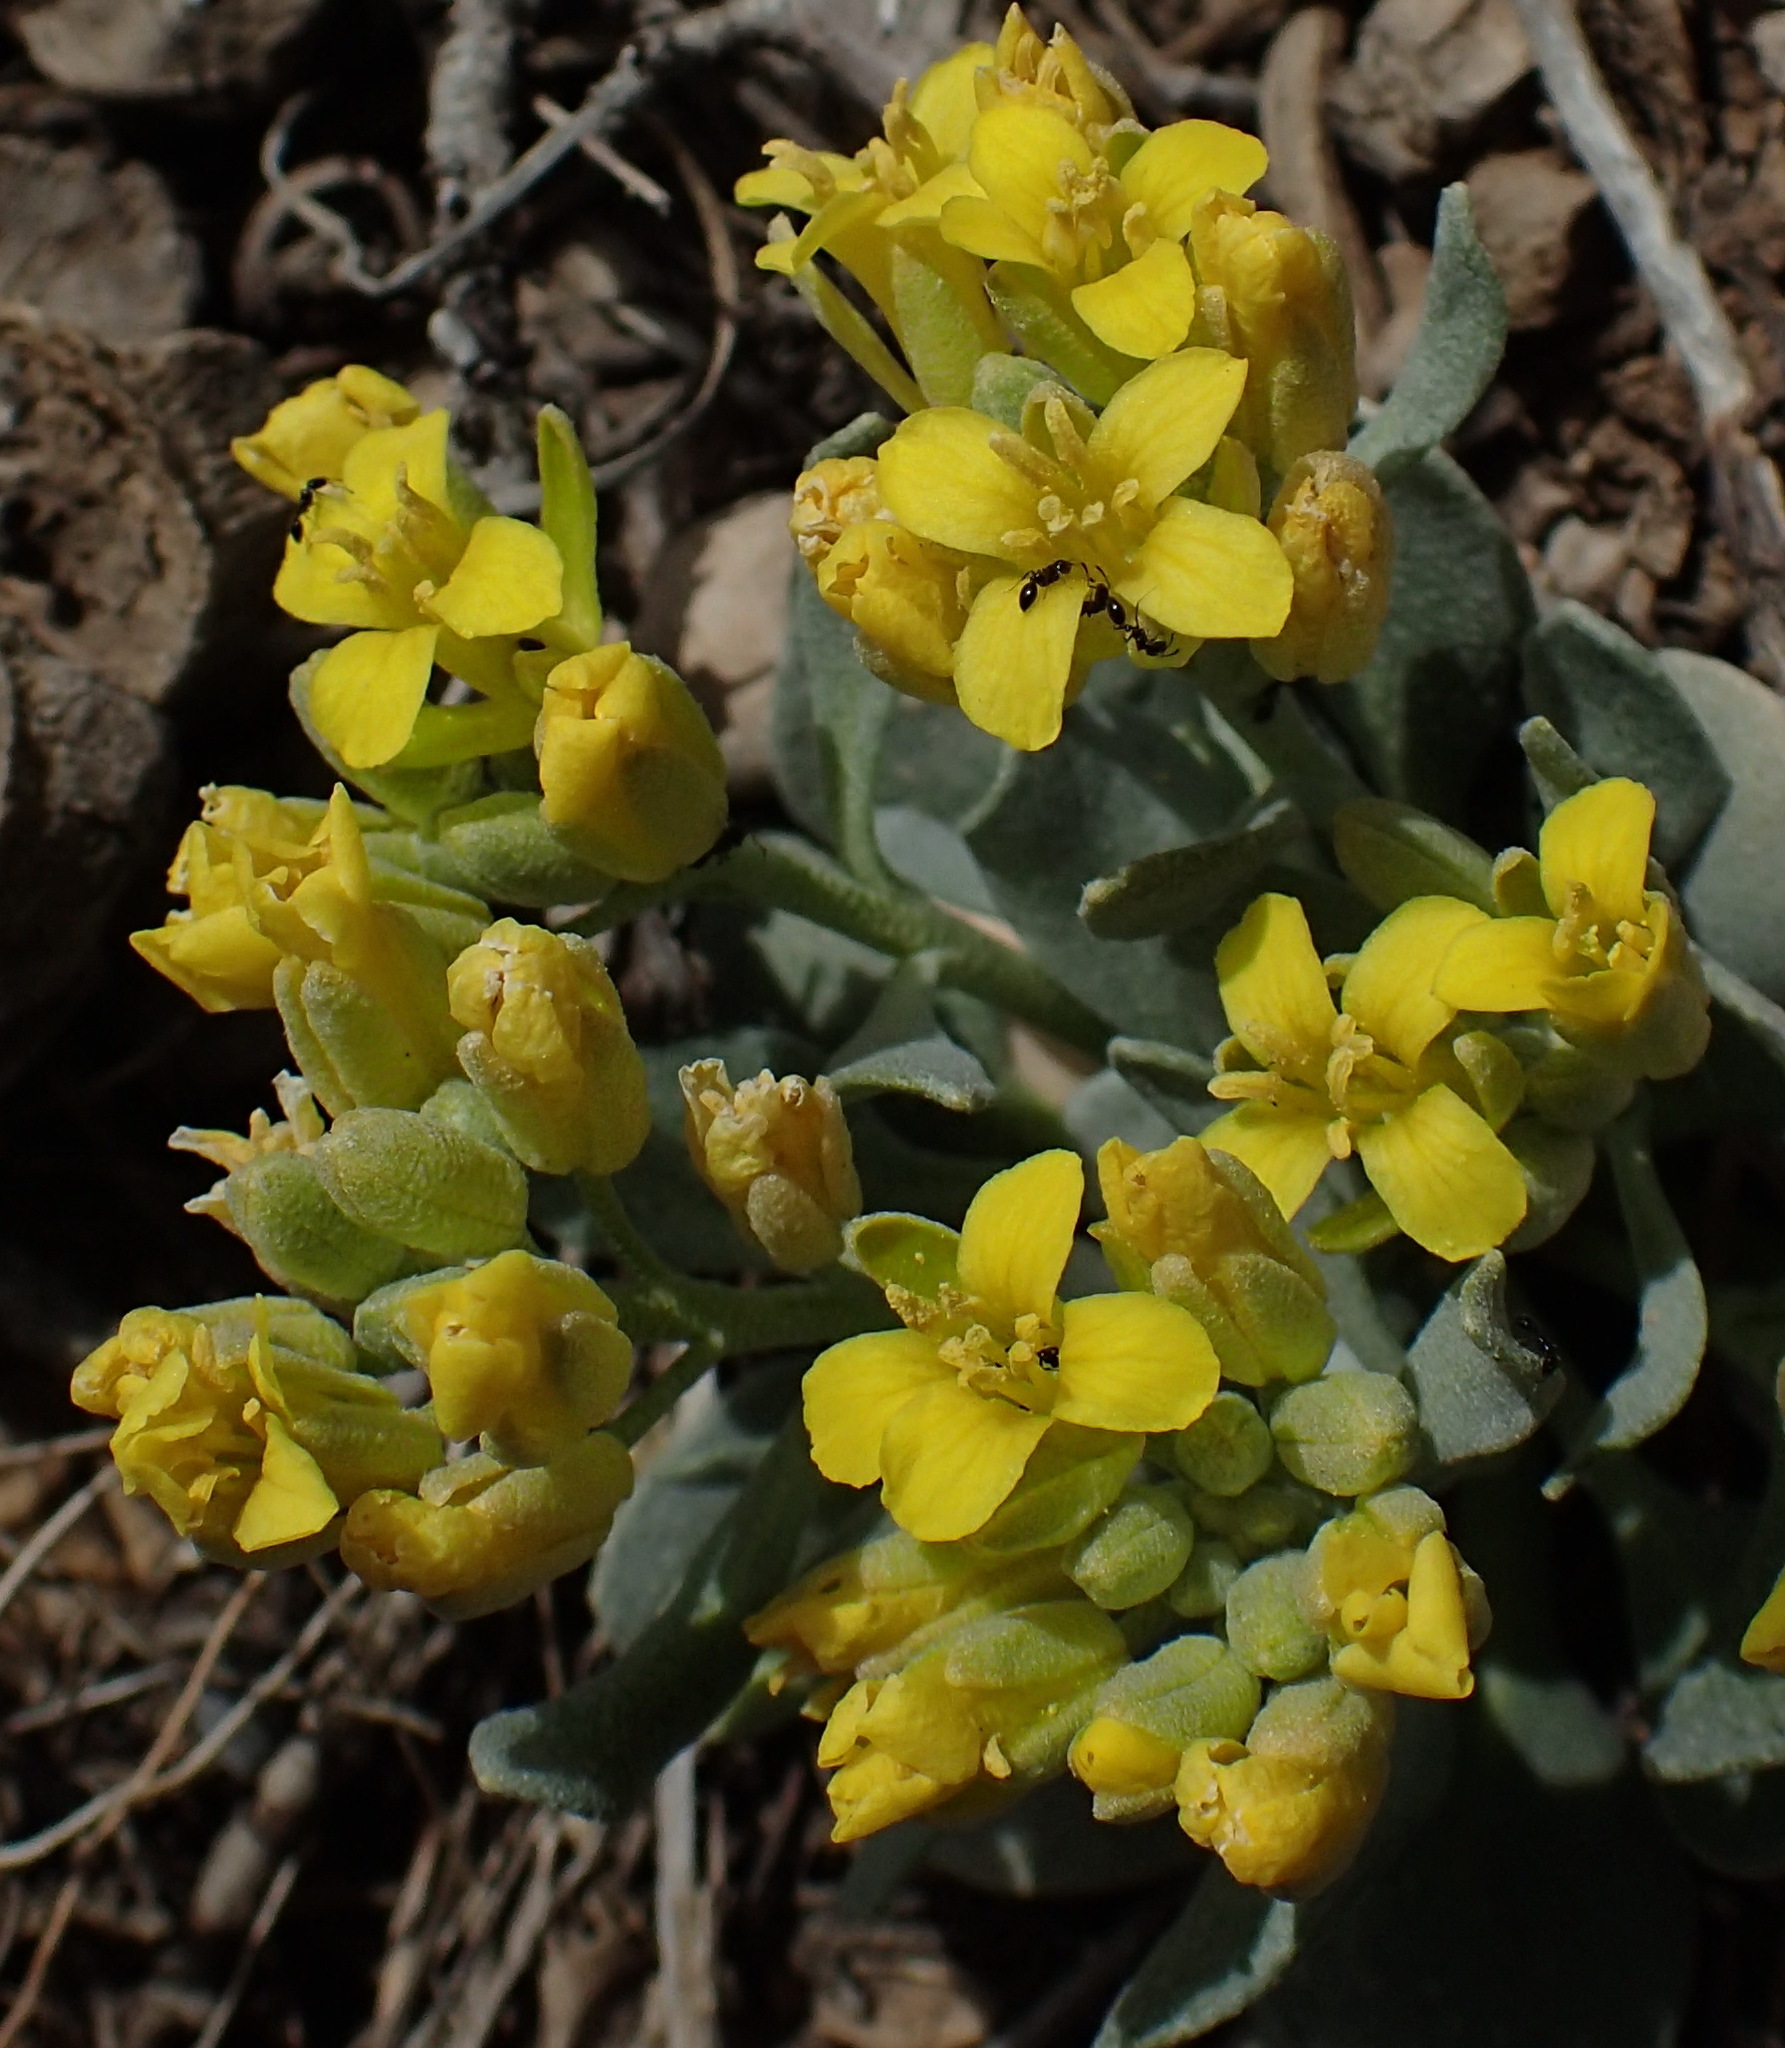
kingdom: Plantae
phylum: Tracheophyta
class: Magnoliopsida
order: Brassicales
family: Brassicaceae
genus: Physaria
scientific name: Physaria acutifolia
